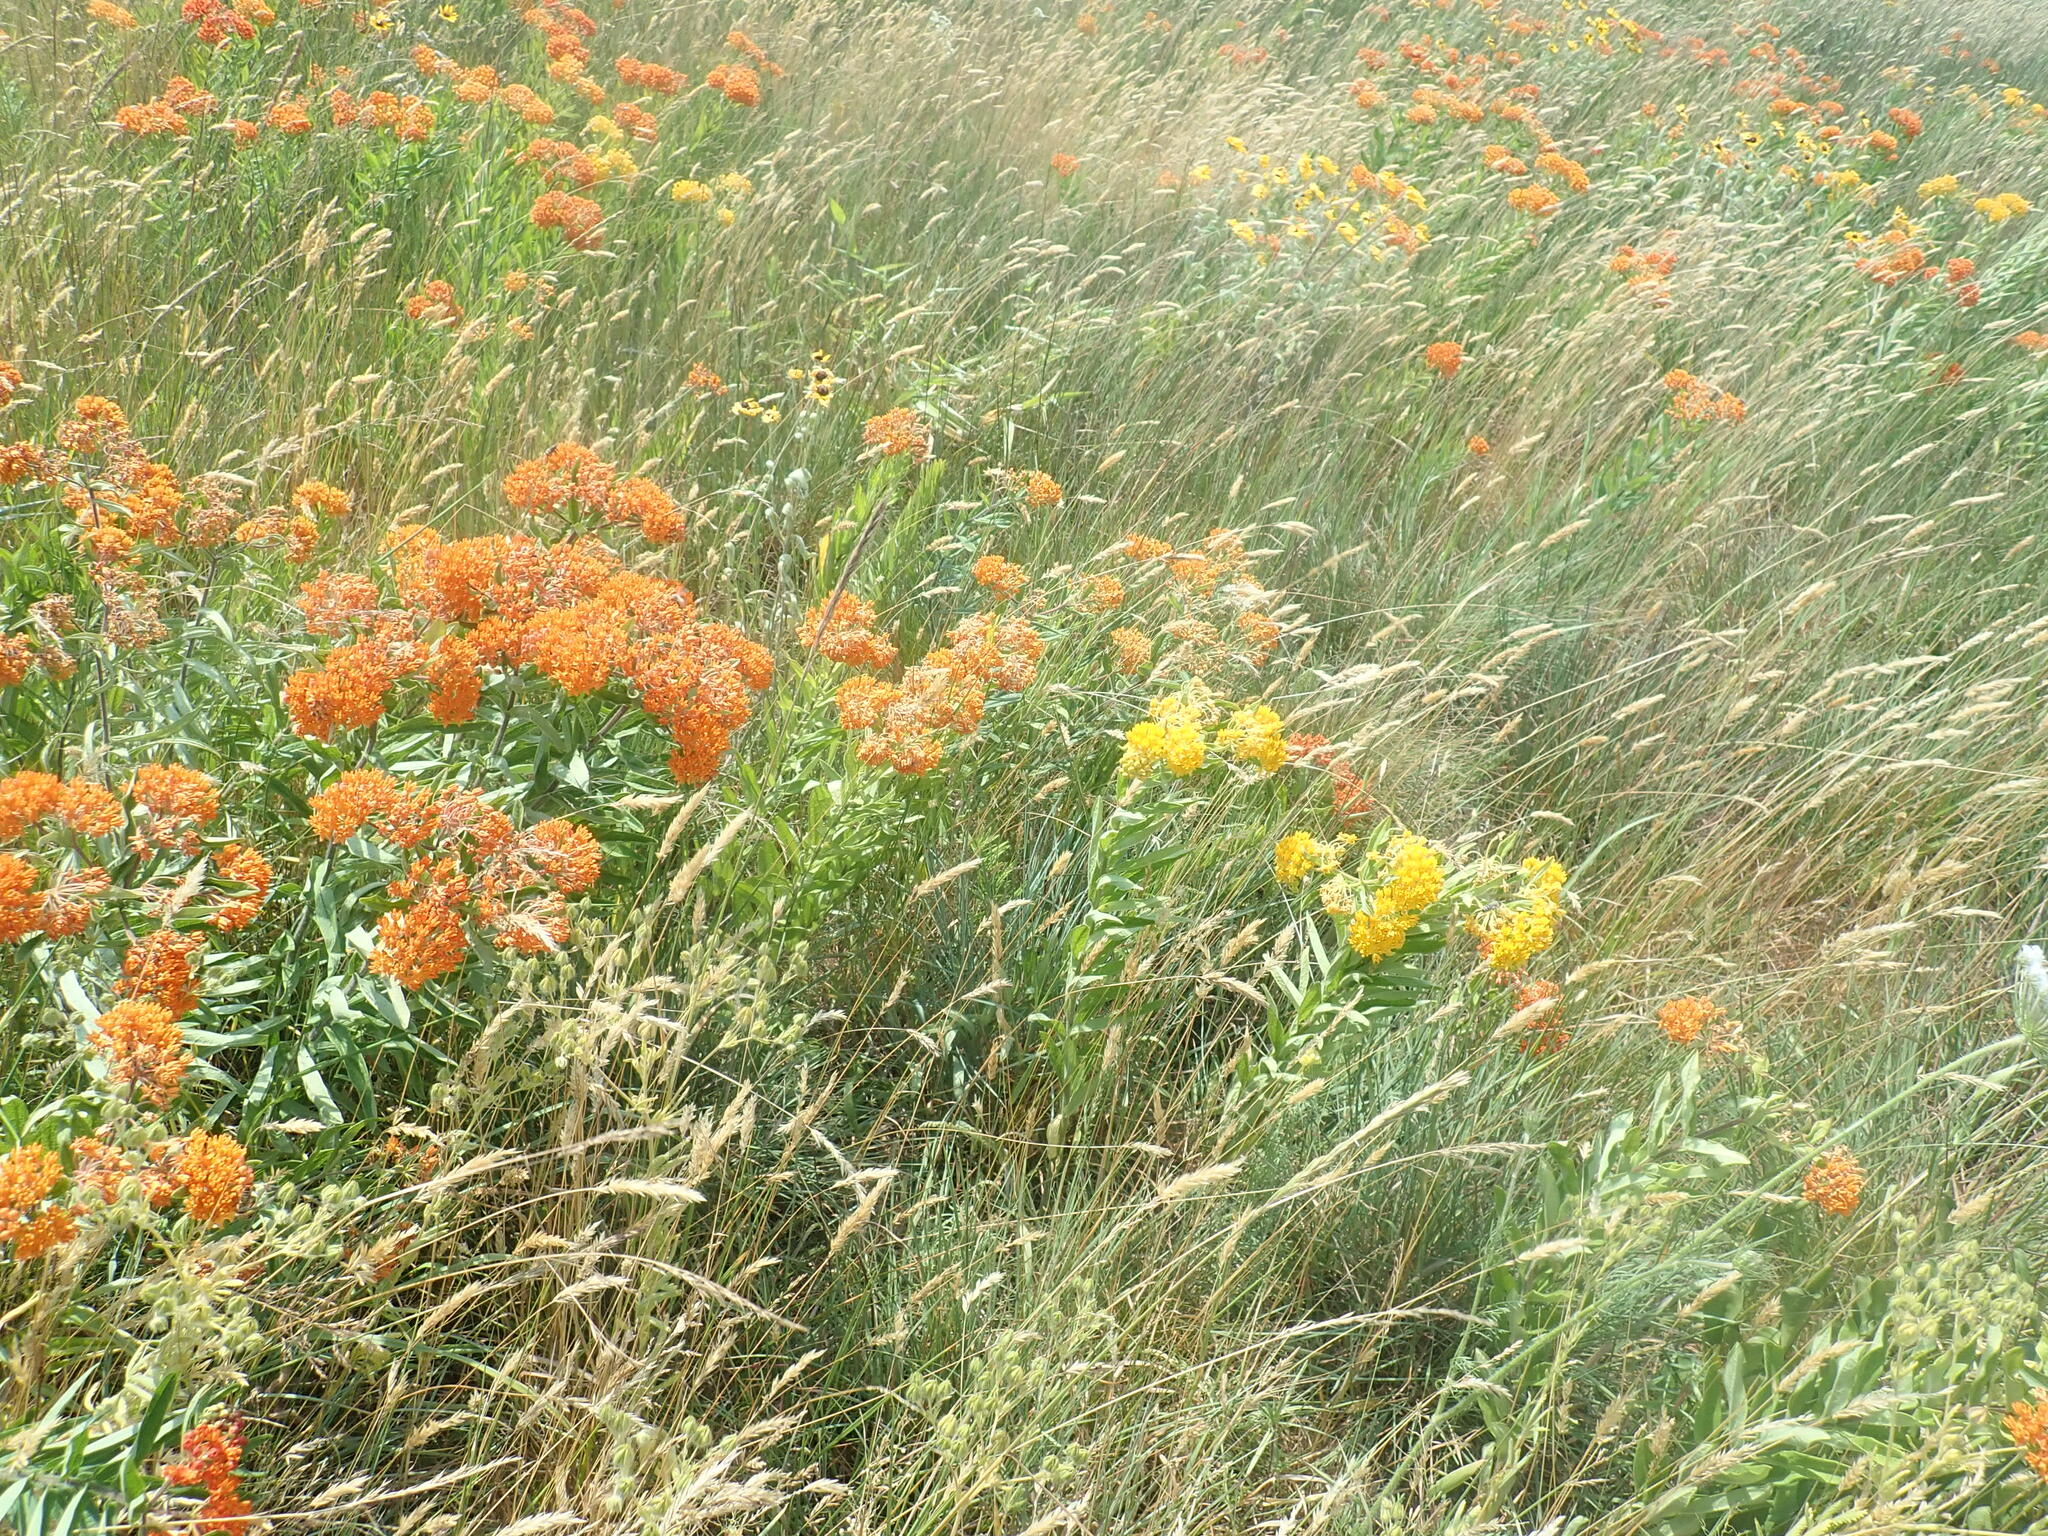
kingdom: Plantae
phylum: Tracheophyta
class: Magnoliopsida
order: Gentianales
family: Apocynaceae
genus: Asclepias
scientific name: Asclepias tuberosa
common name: Butterfly milkweed
